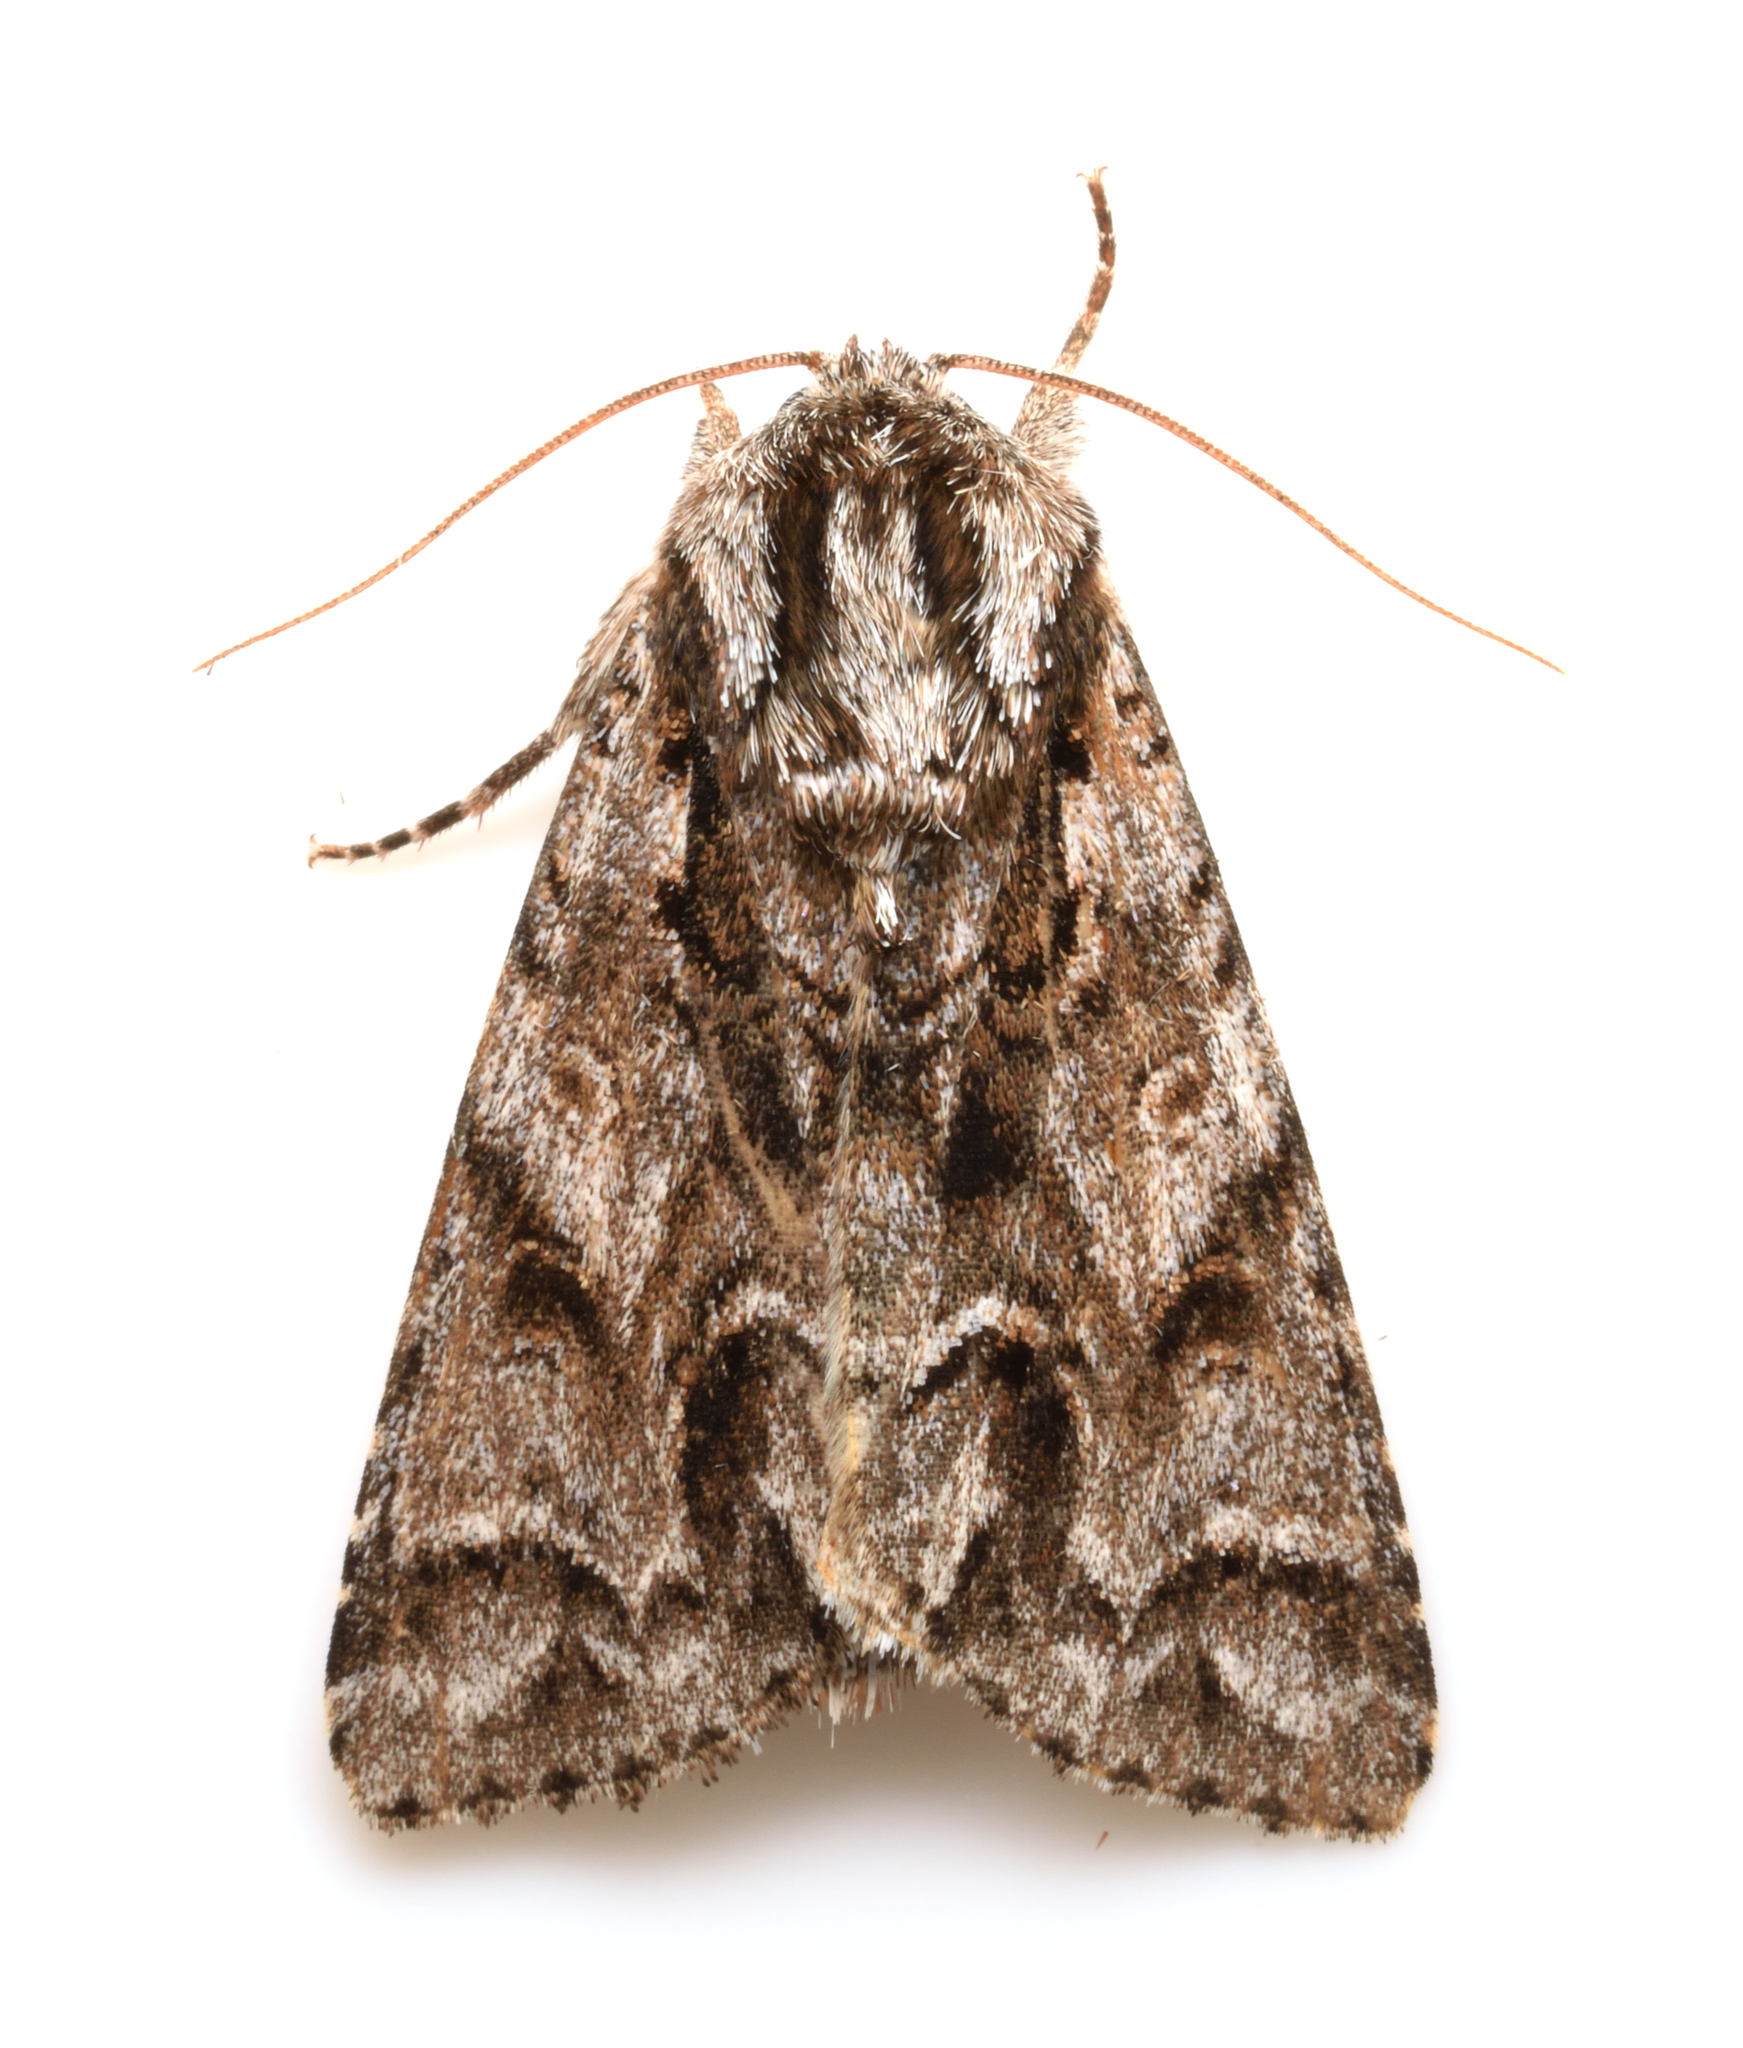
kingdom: Animalia
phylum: Arthropoda
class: Insecta
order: Lepidoptera
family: Noctuidae
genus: Acronicta
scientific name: Acronicta digna
